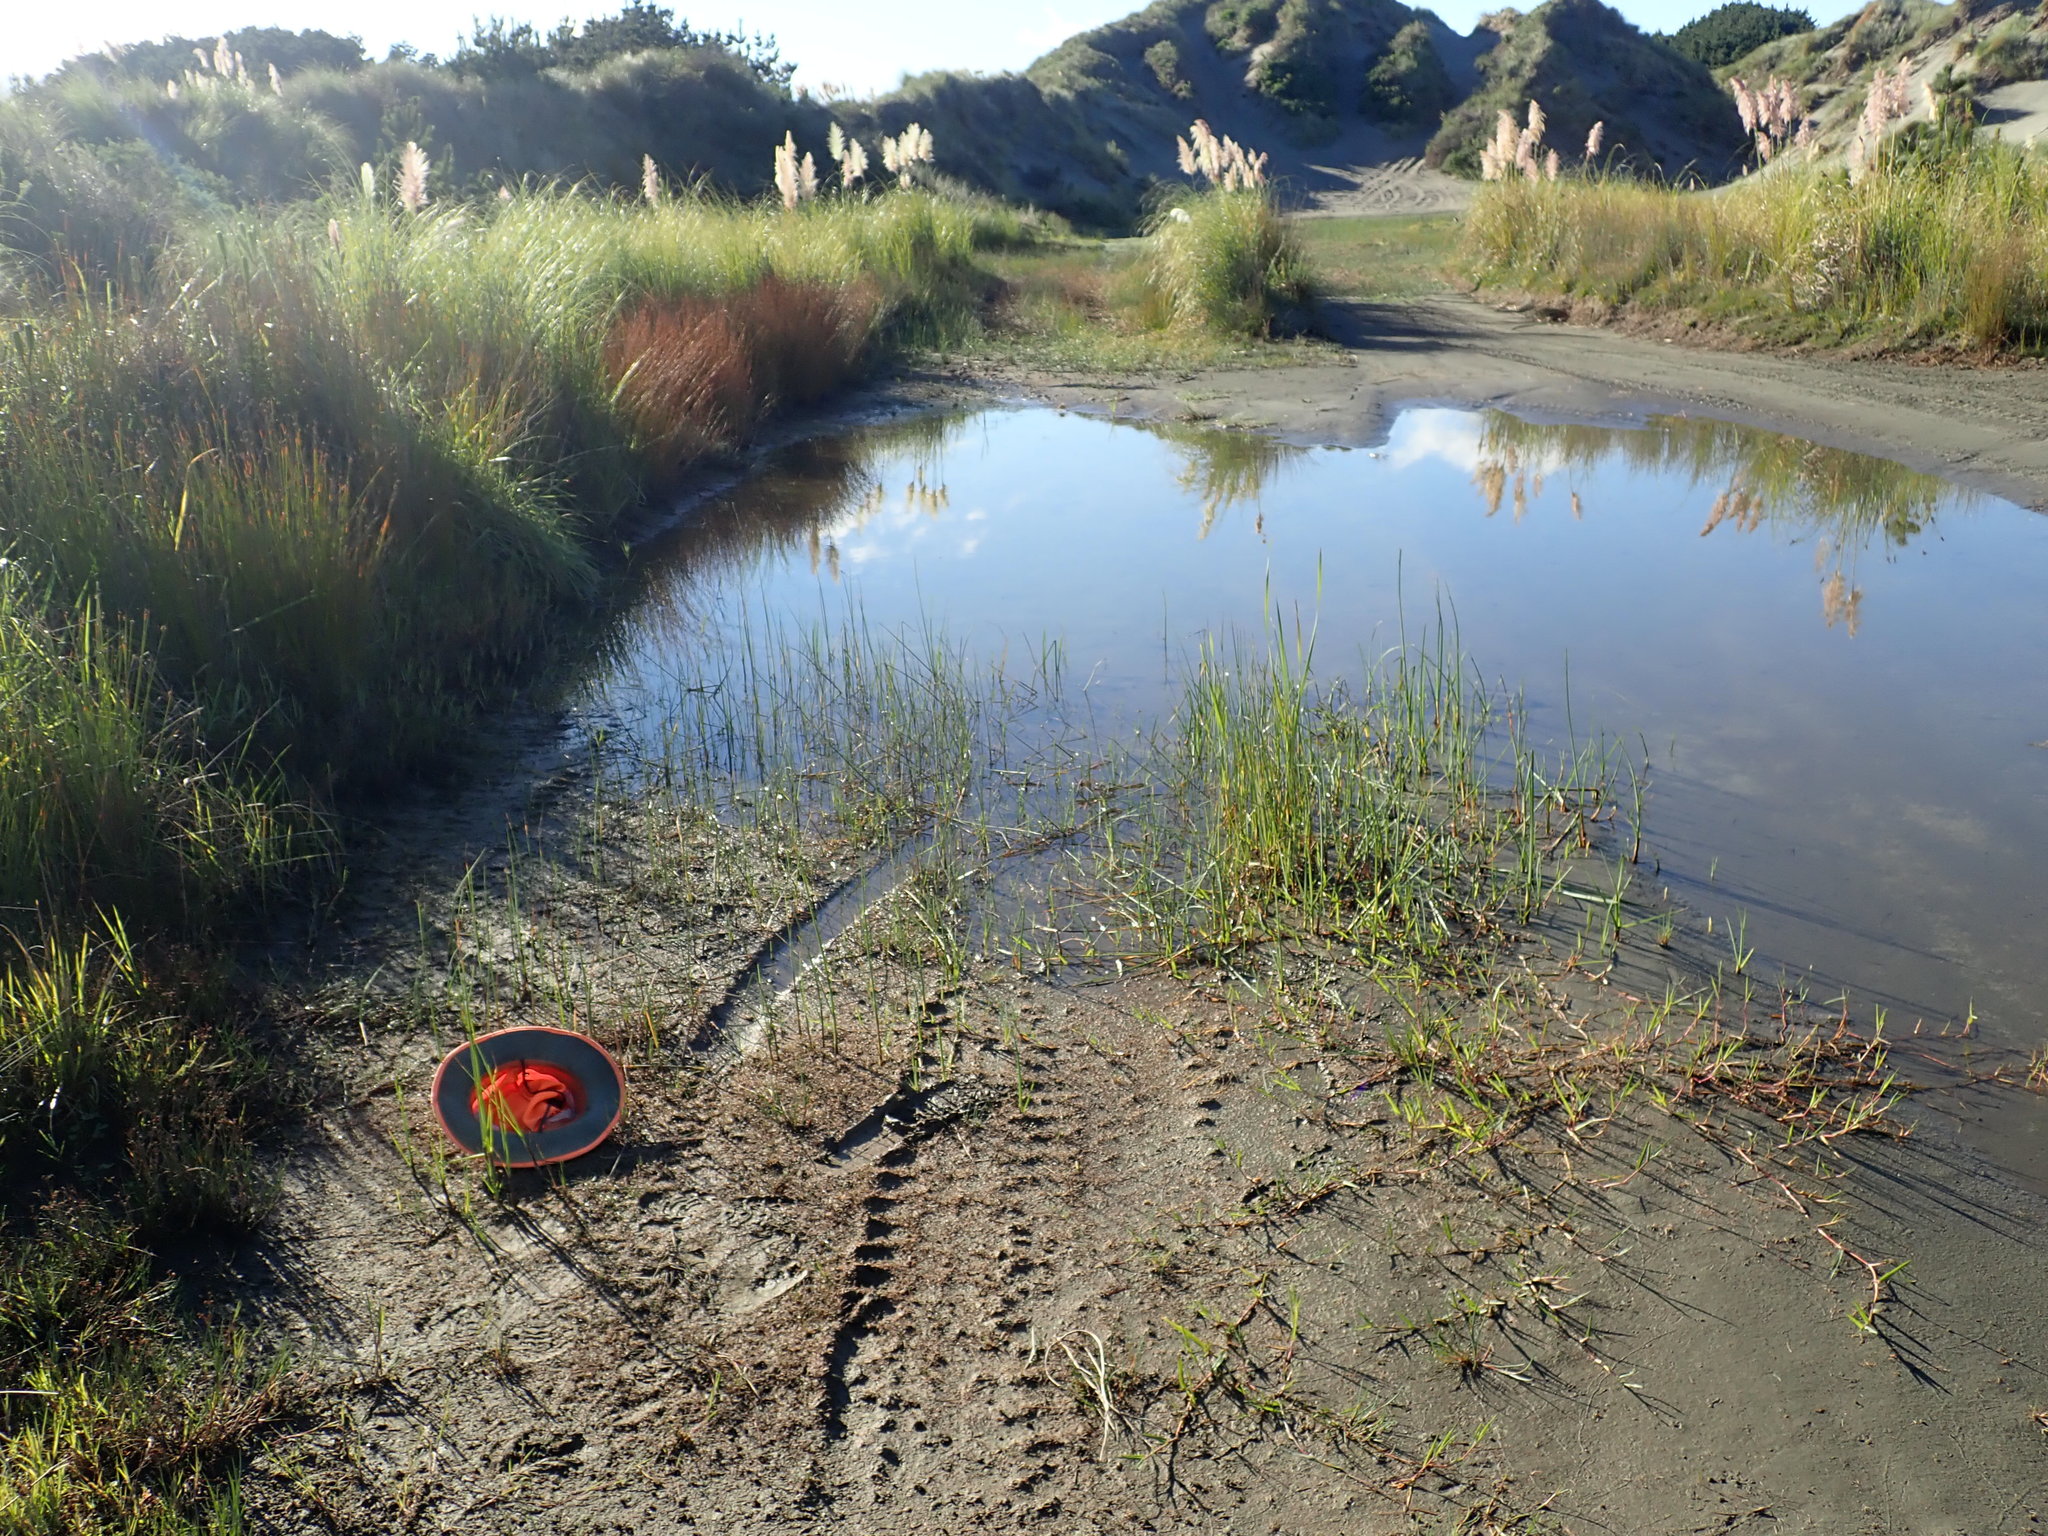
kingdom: Plantae
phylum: Tracheophyta
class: Magnoliopsida
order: Lamiales
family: Scrophulariaceae
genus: Limosella
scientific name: Limosella australis
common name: Welsh mudwort
